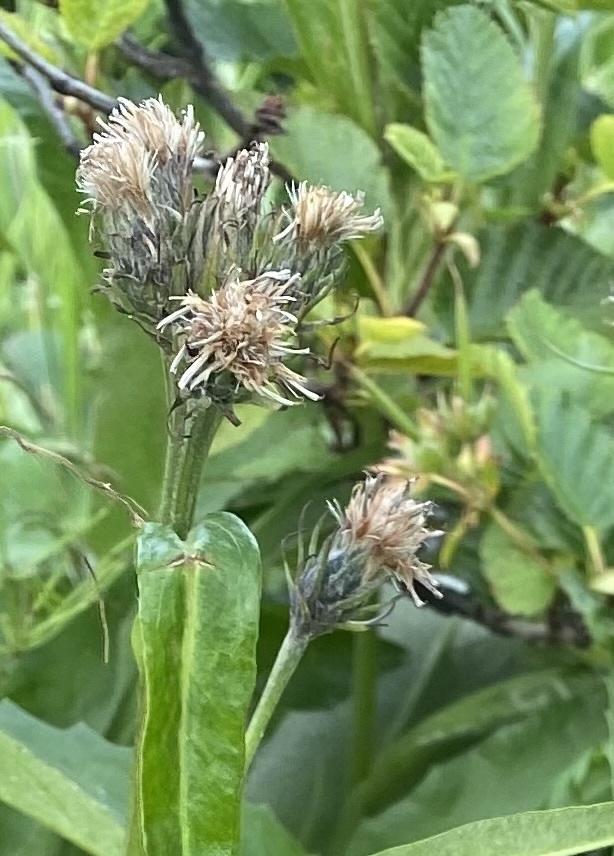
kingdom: Plantae
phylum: Tracheophyta
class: Magnoliopsida
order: Asterales
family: Asteraceae
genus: Saussurea
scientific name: Saussurea pseudotilesii
